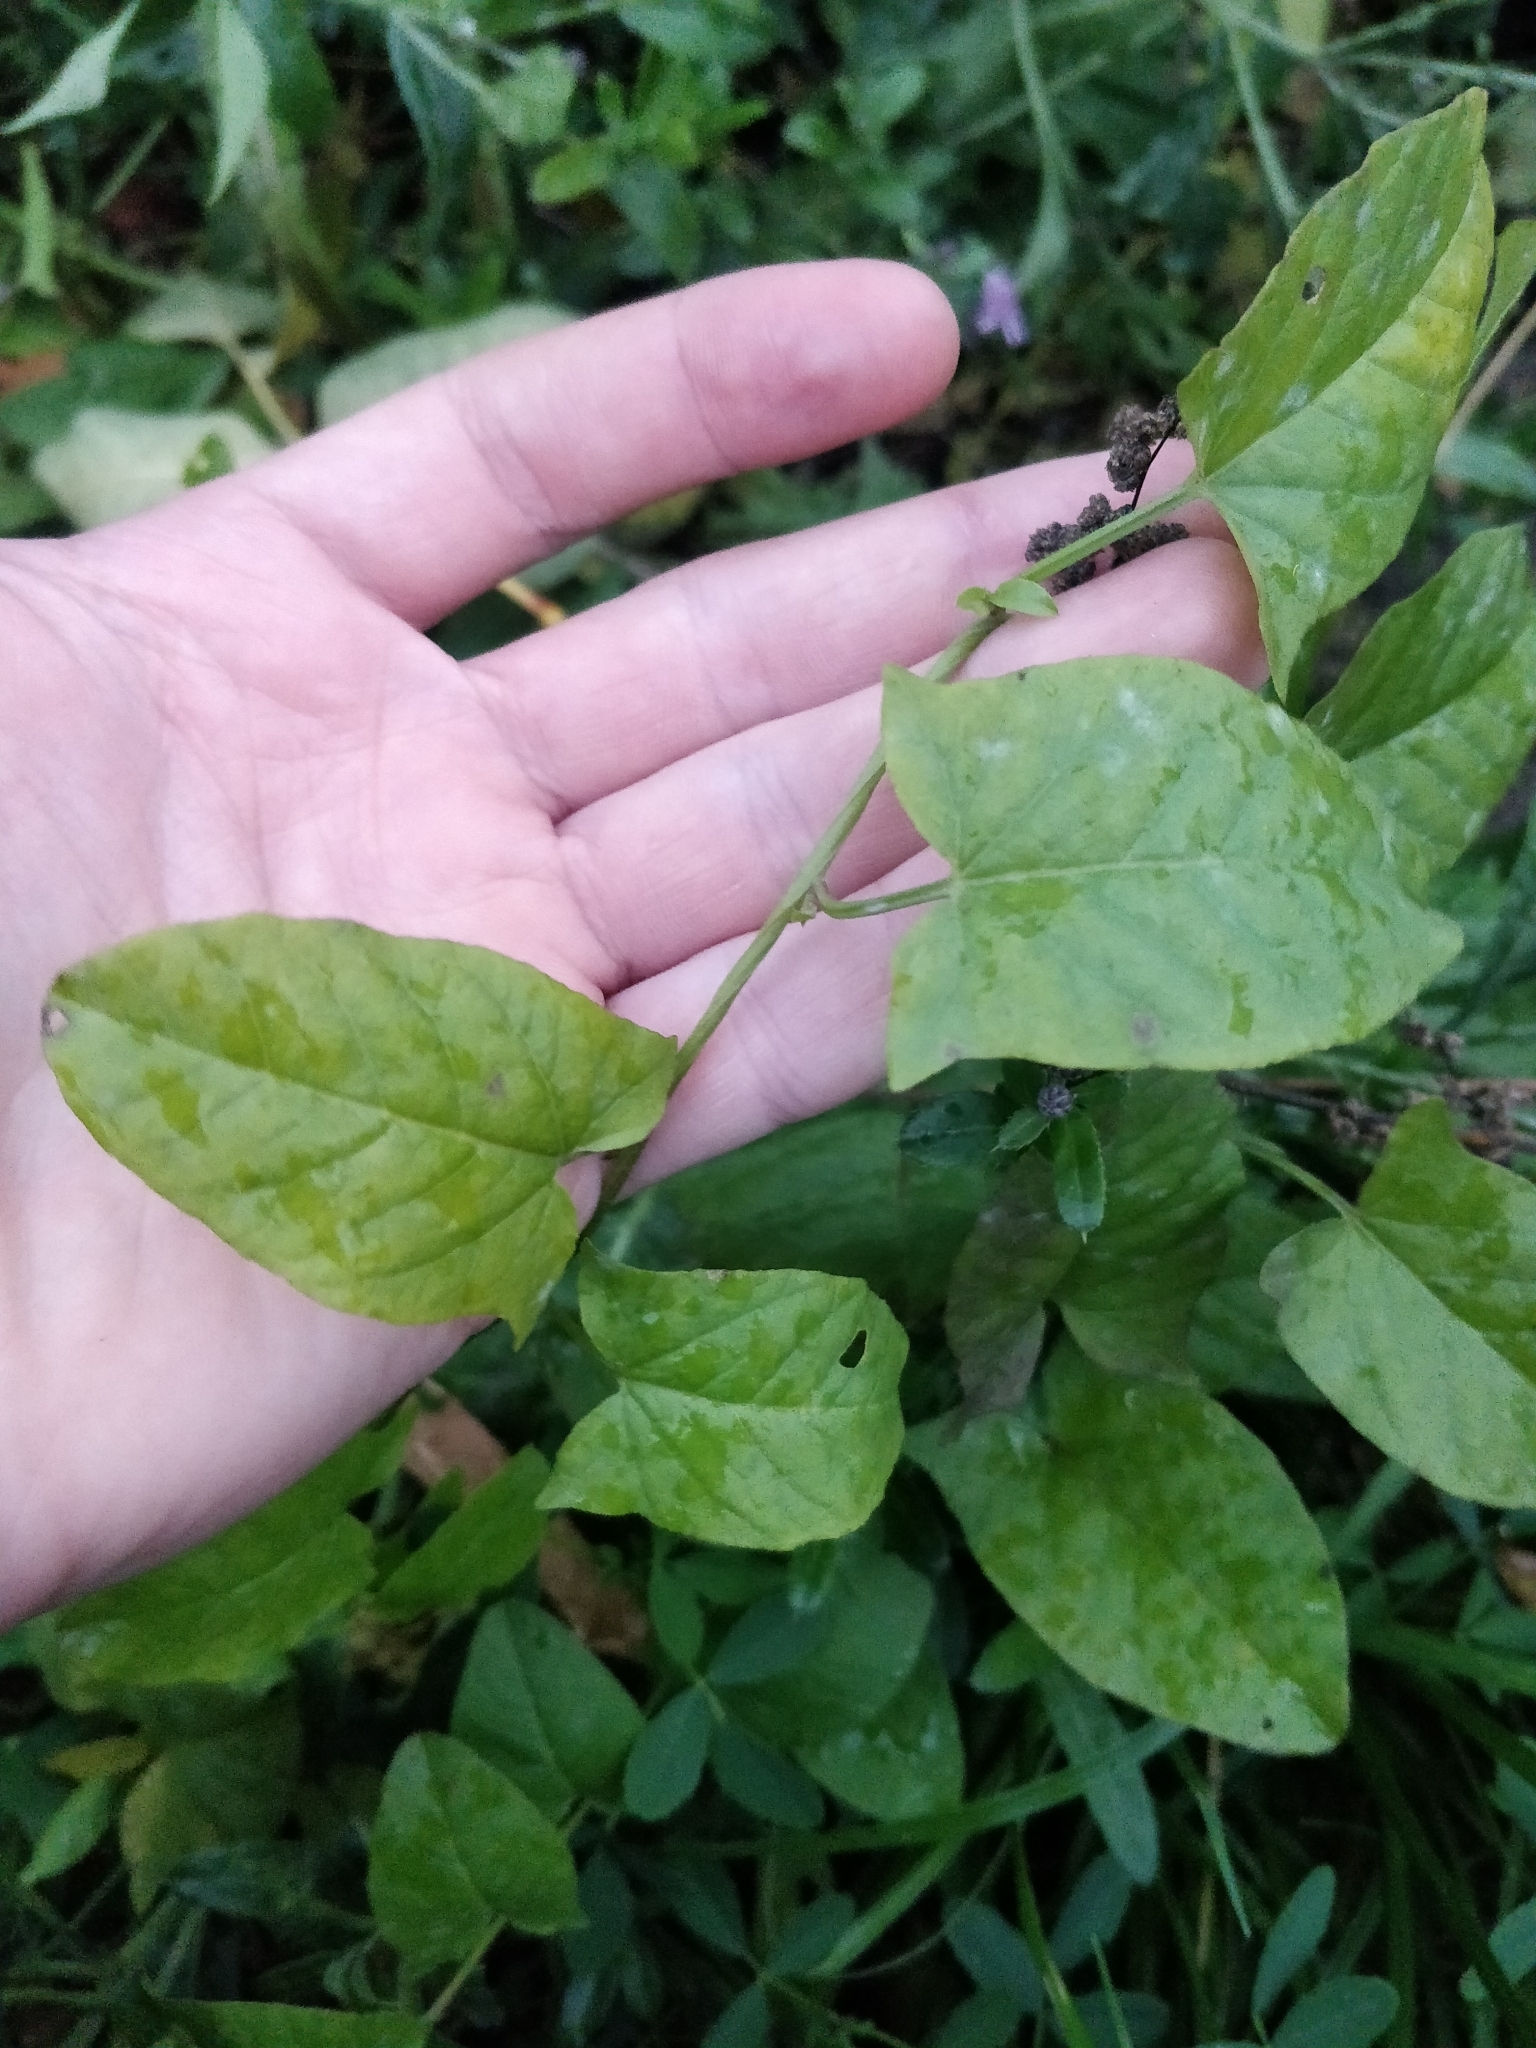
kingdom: Plantae
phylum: Tracheophyta
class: Magnoliopsida
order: Solanales
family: Convolvulaceae
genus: Convolvulus
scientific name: Convolvulus arvensis
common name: Field bindweed
